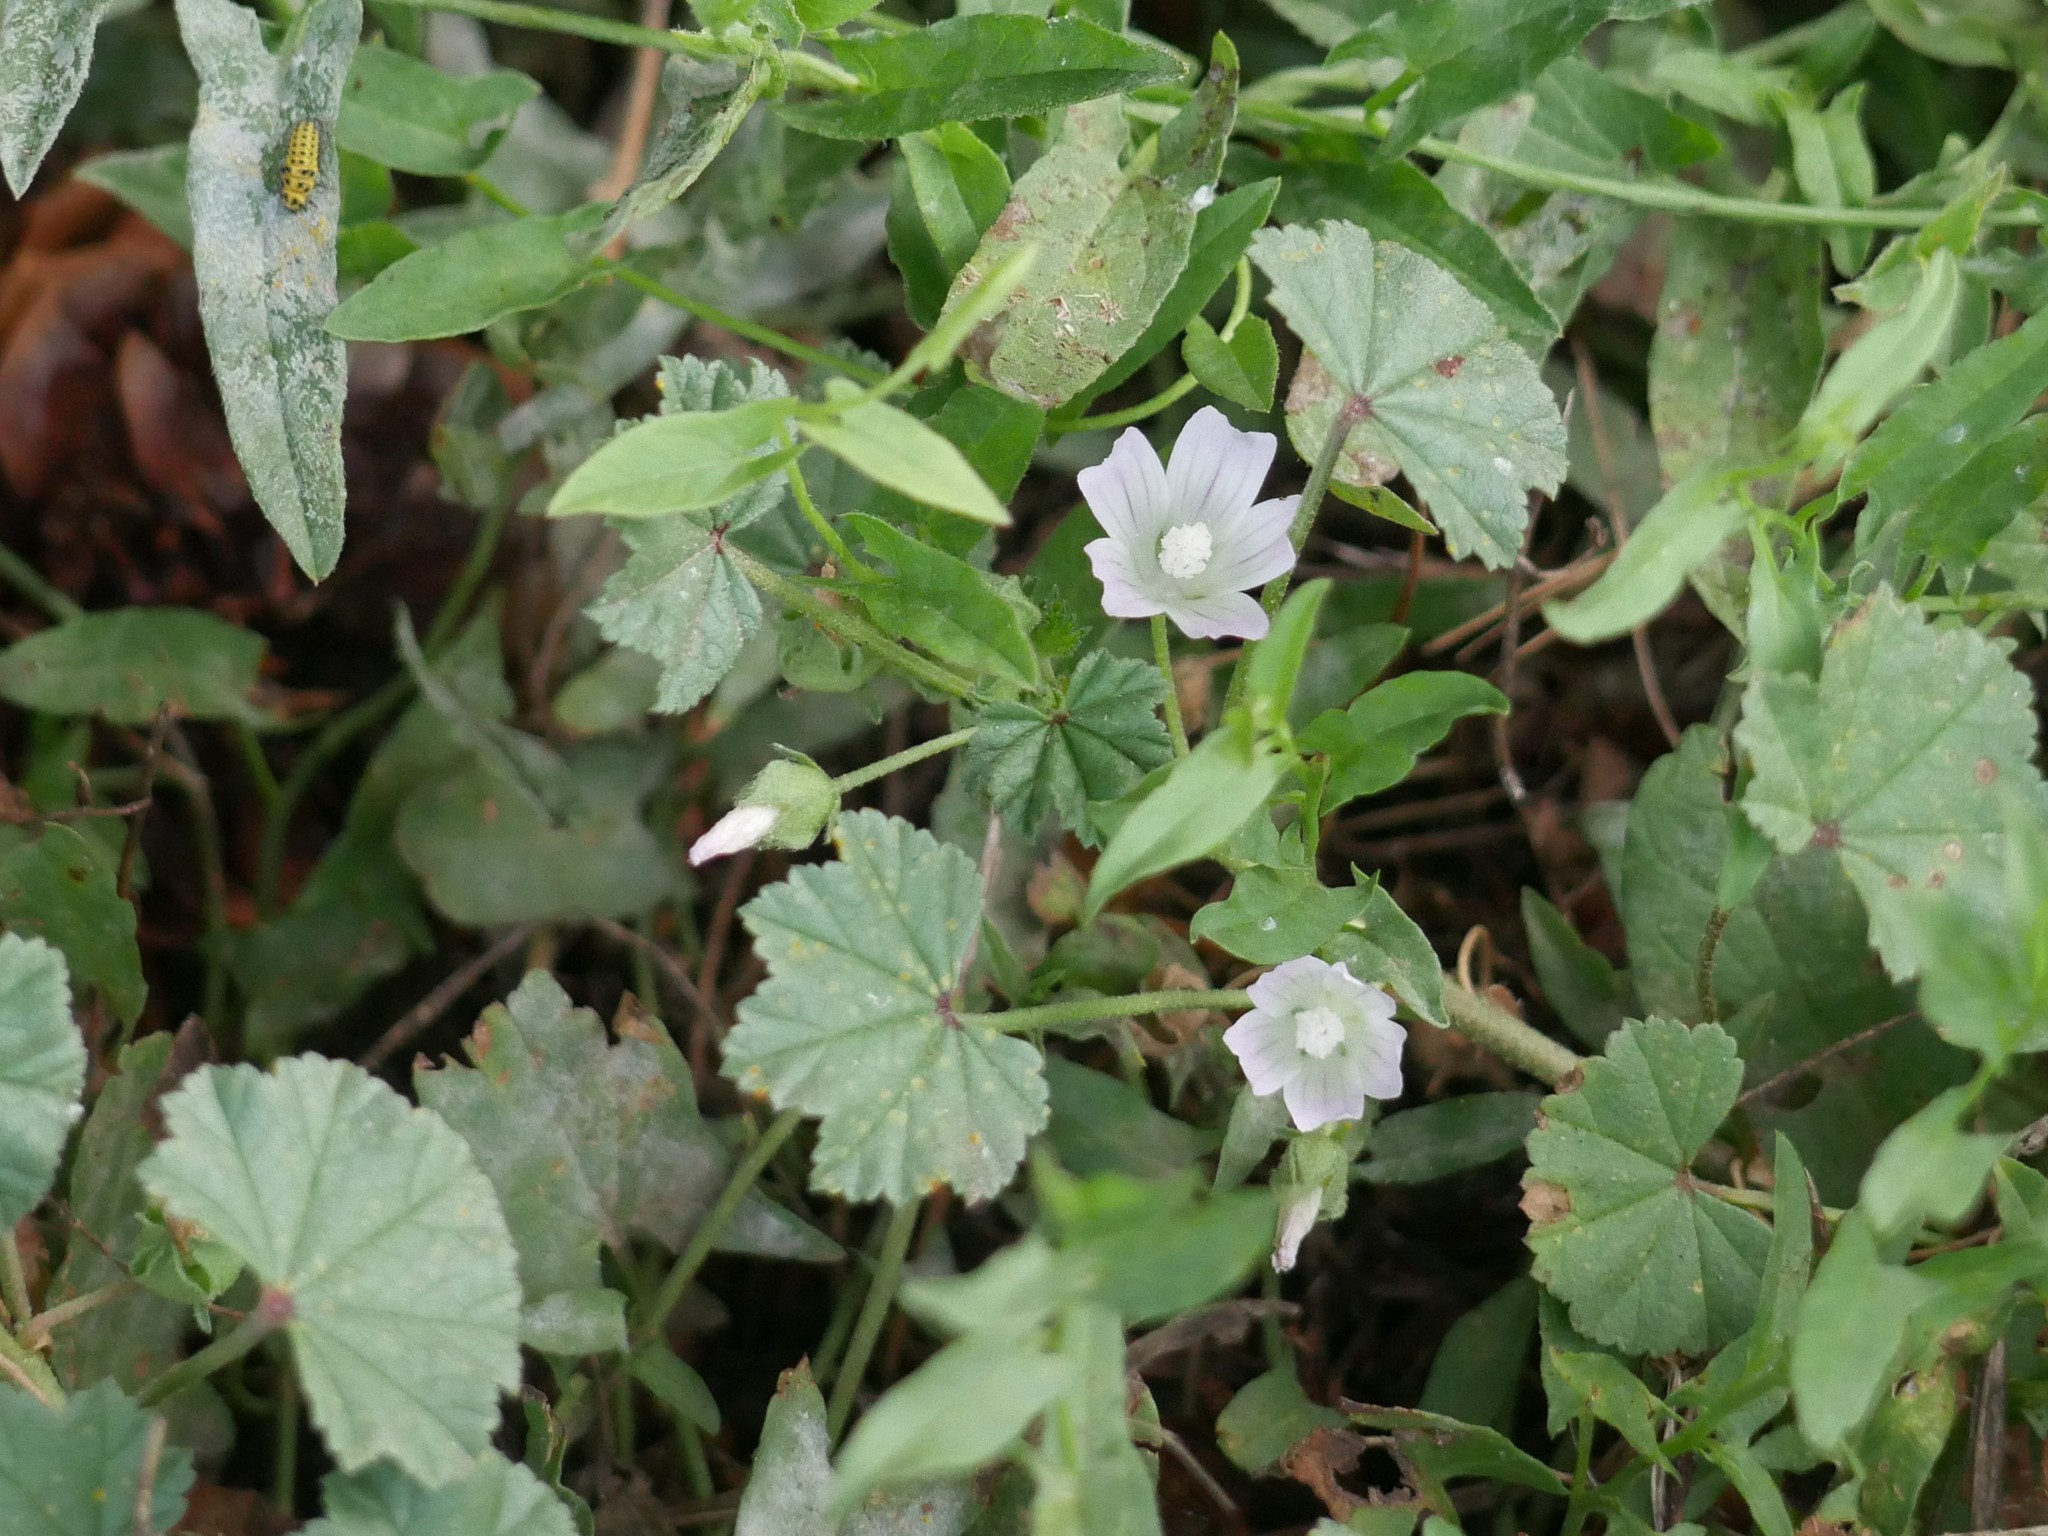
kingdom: Plantae
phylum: Tracheophyta
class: Magnoliopsida
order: Malvales
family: Malvaceae
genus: Malva
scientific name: Malva neglecta
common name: Common mallow
